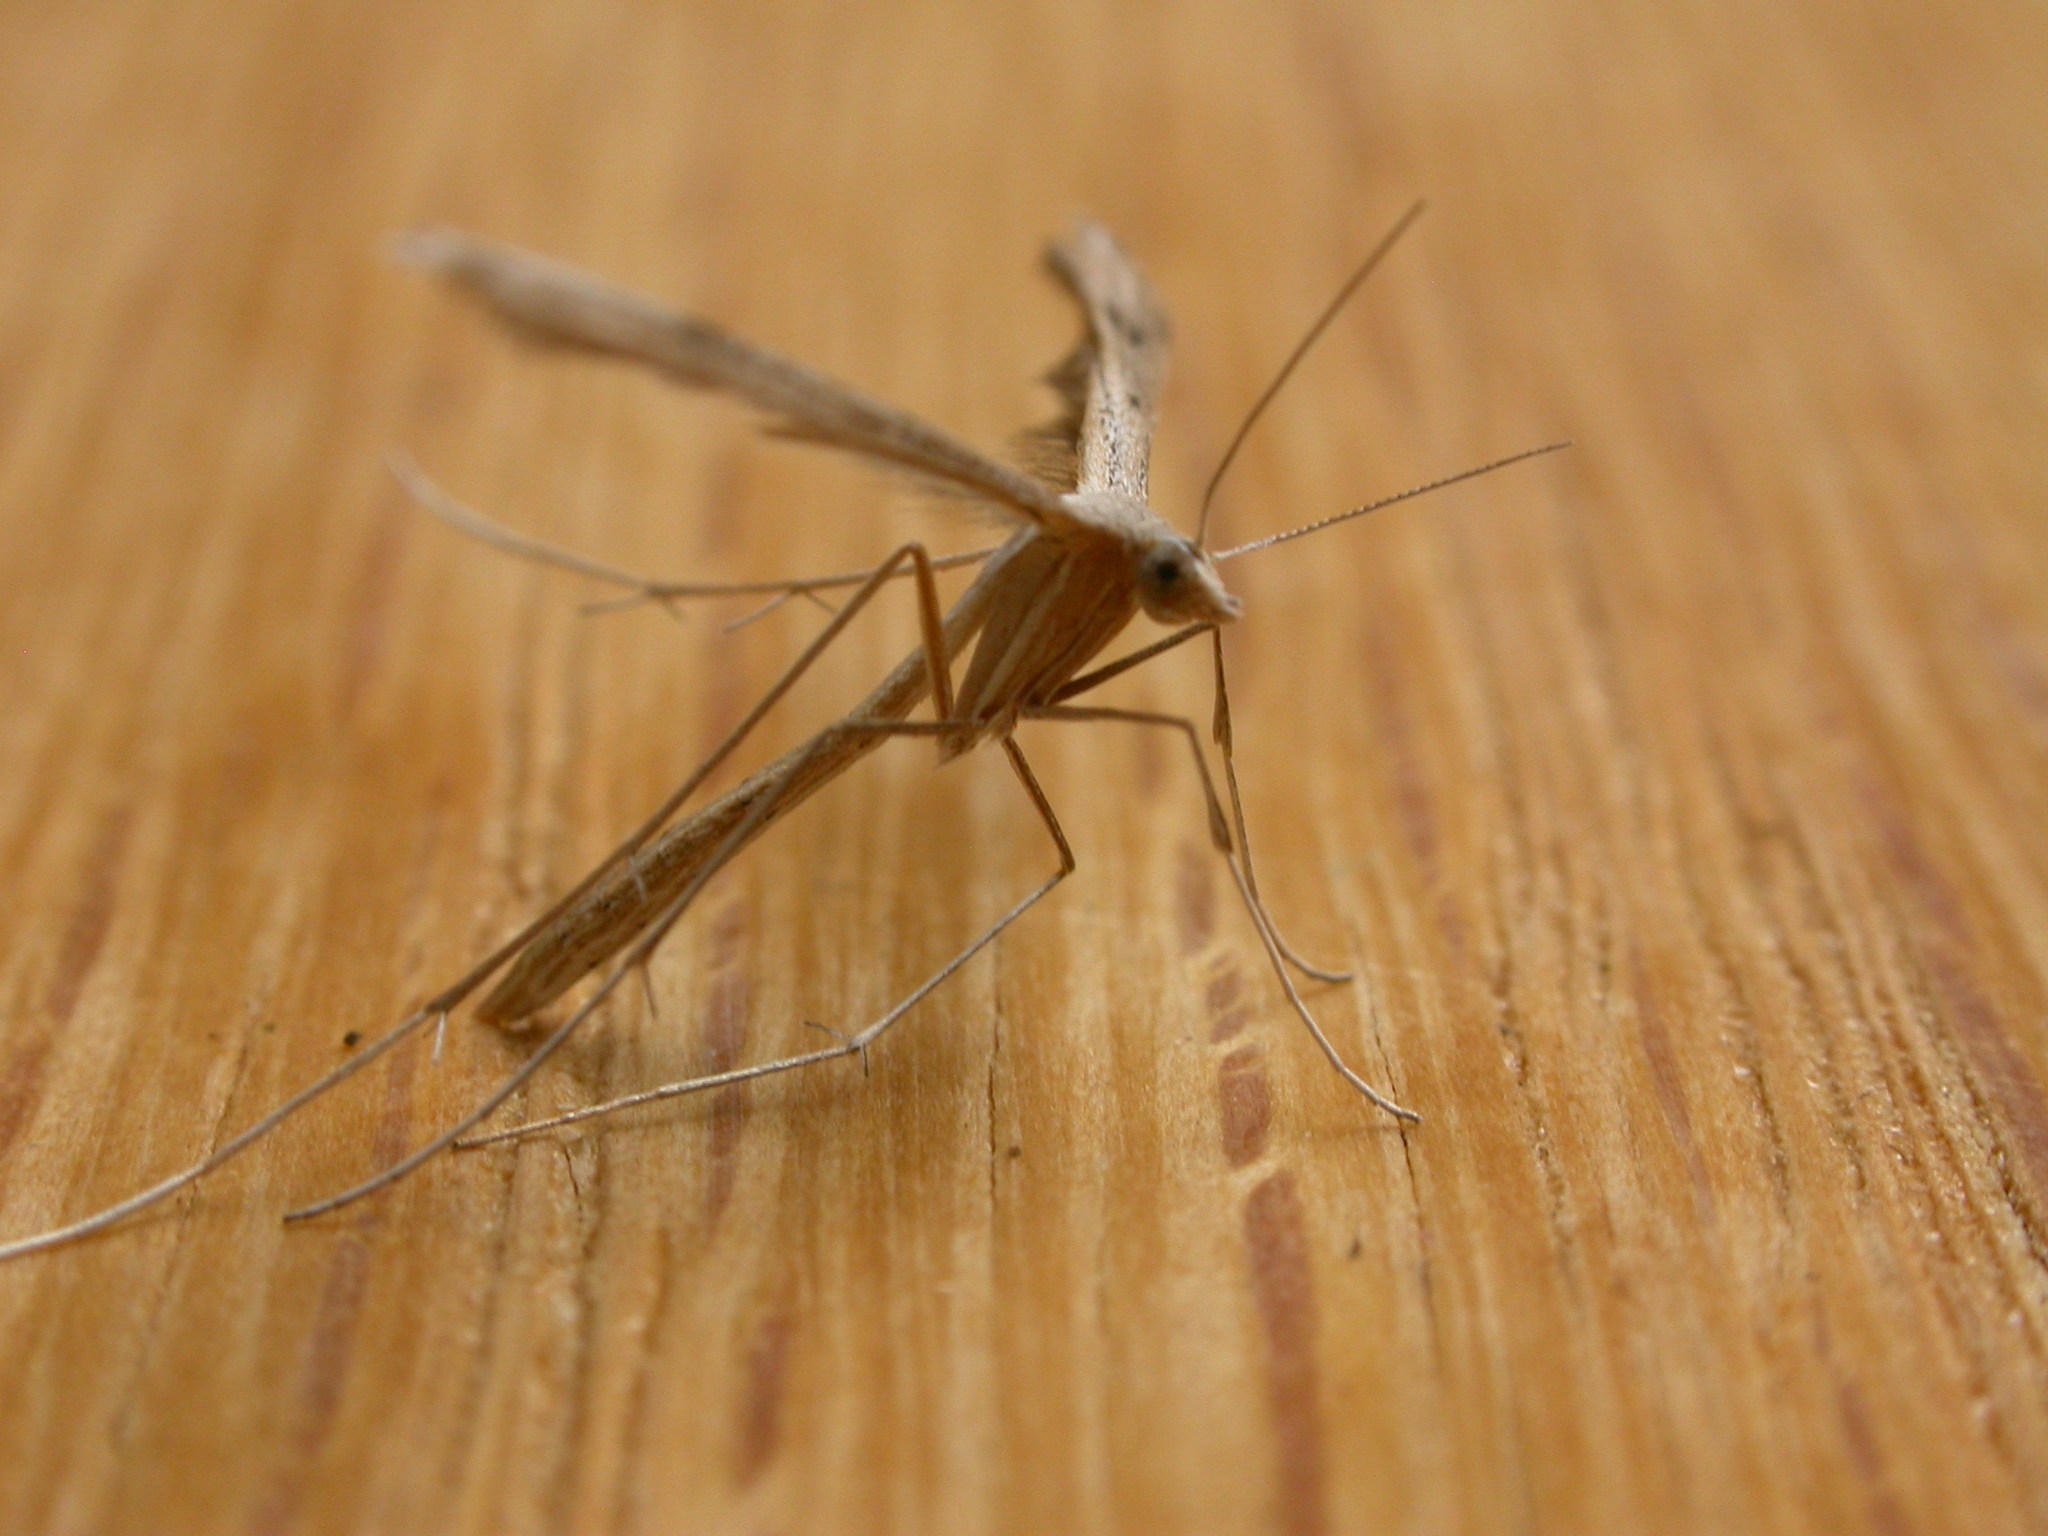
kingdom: Animalia
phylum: Arthropoda
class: Insecta
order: Lepidoptera
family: Pterophoridae
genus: Stenoptilia
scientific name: Stenoptilia zophodactylus
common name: Dowdy plume
